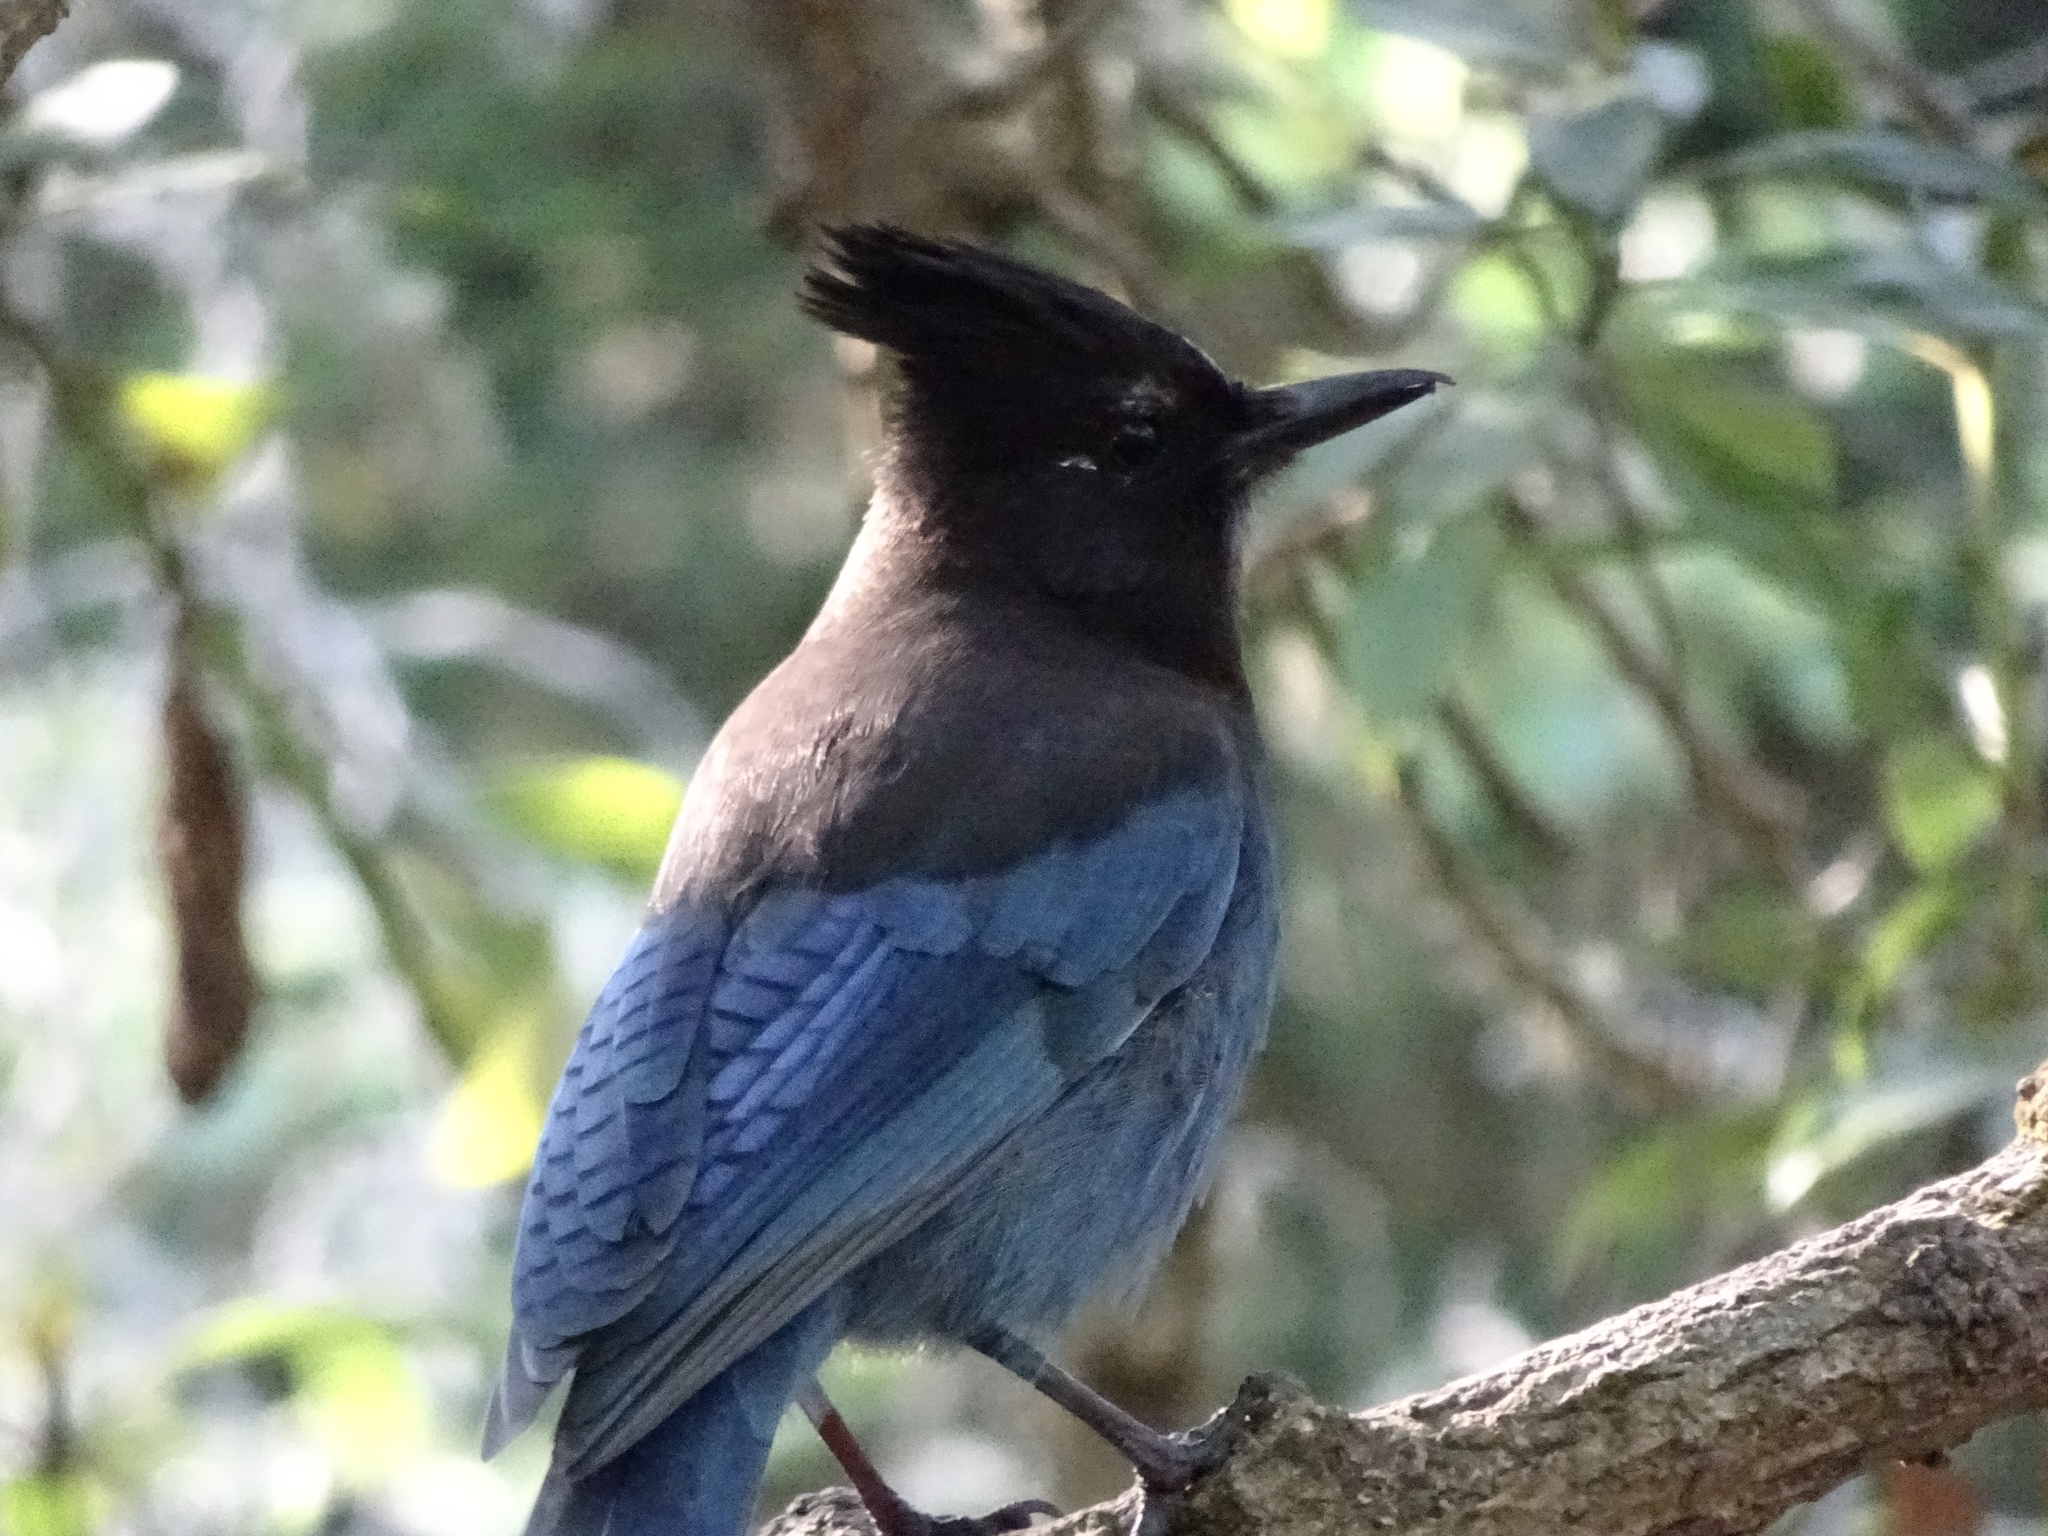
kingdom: Animalia
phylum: Chordata
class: Aves
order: Passeriformes
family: Corvidae
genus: Cyanocitta
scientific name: Cyanocitta stelleri
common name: Steller's jay
